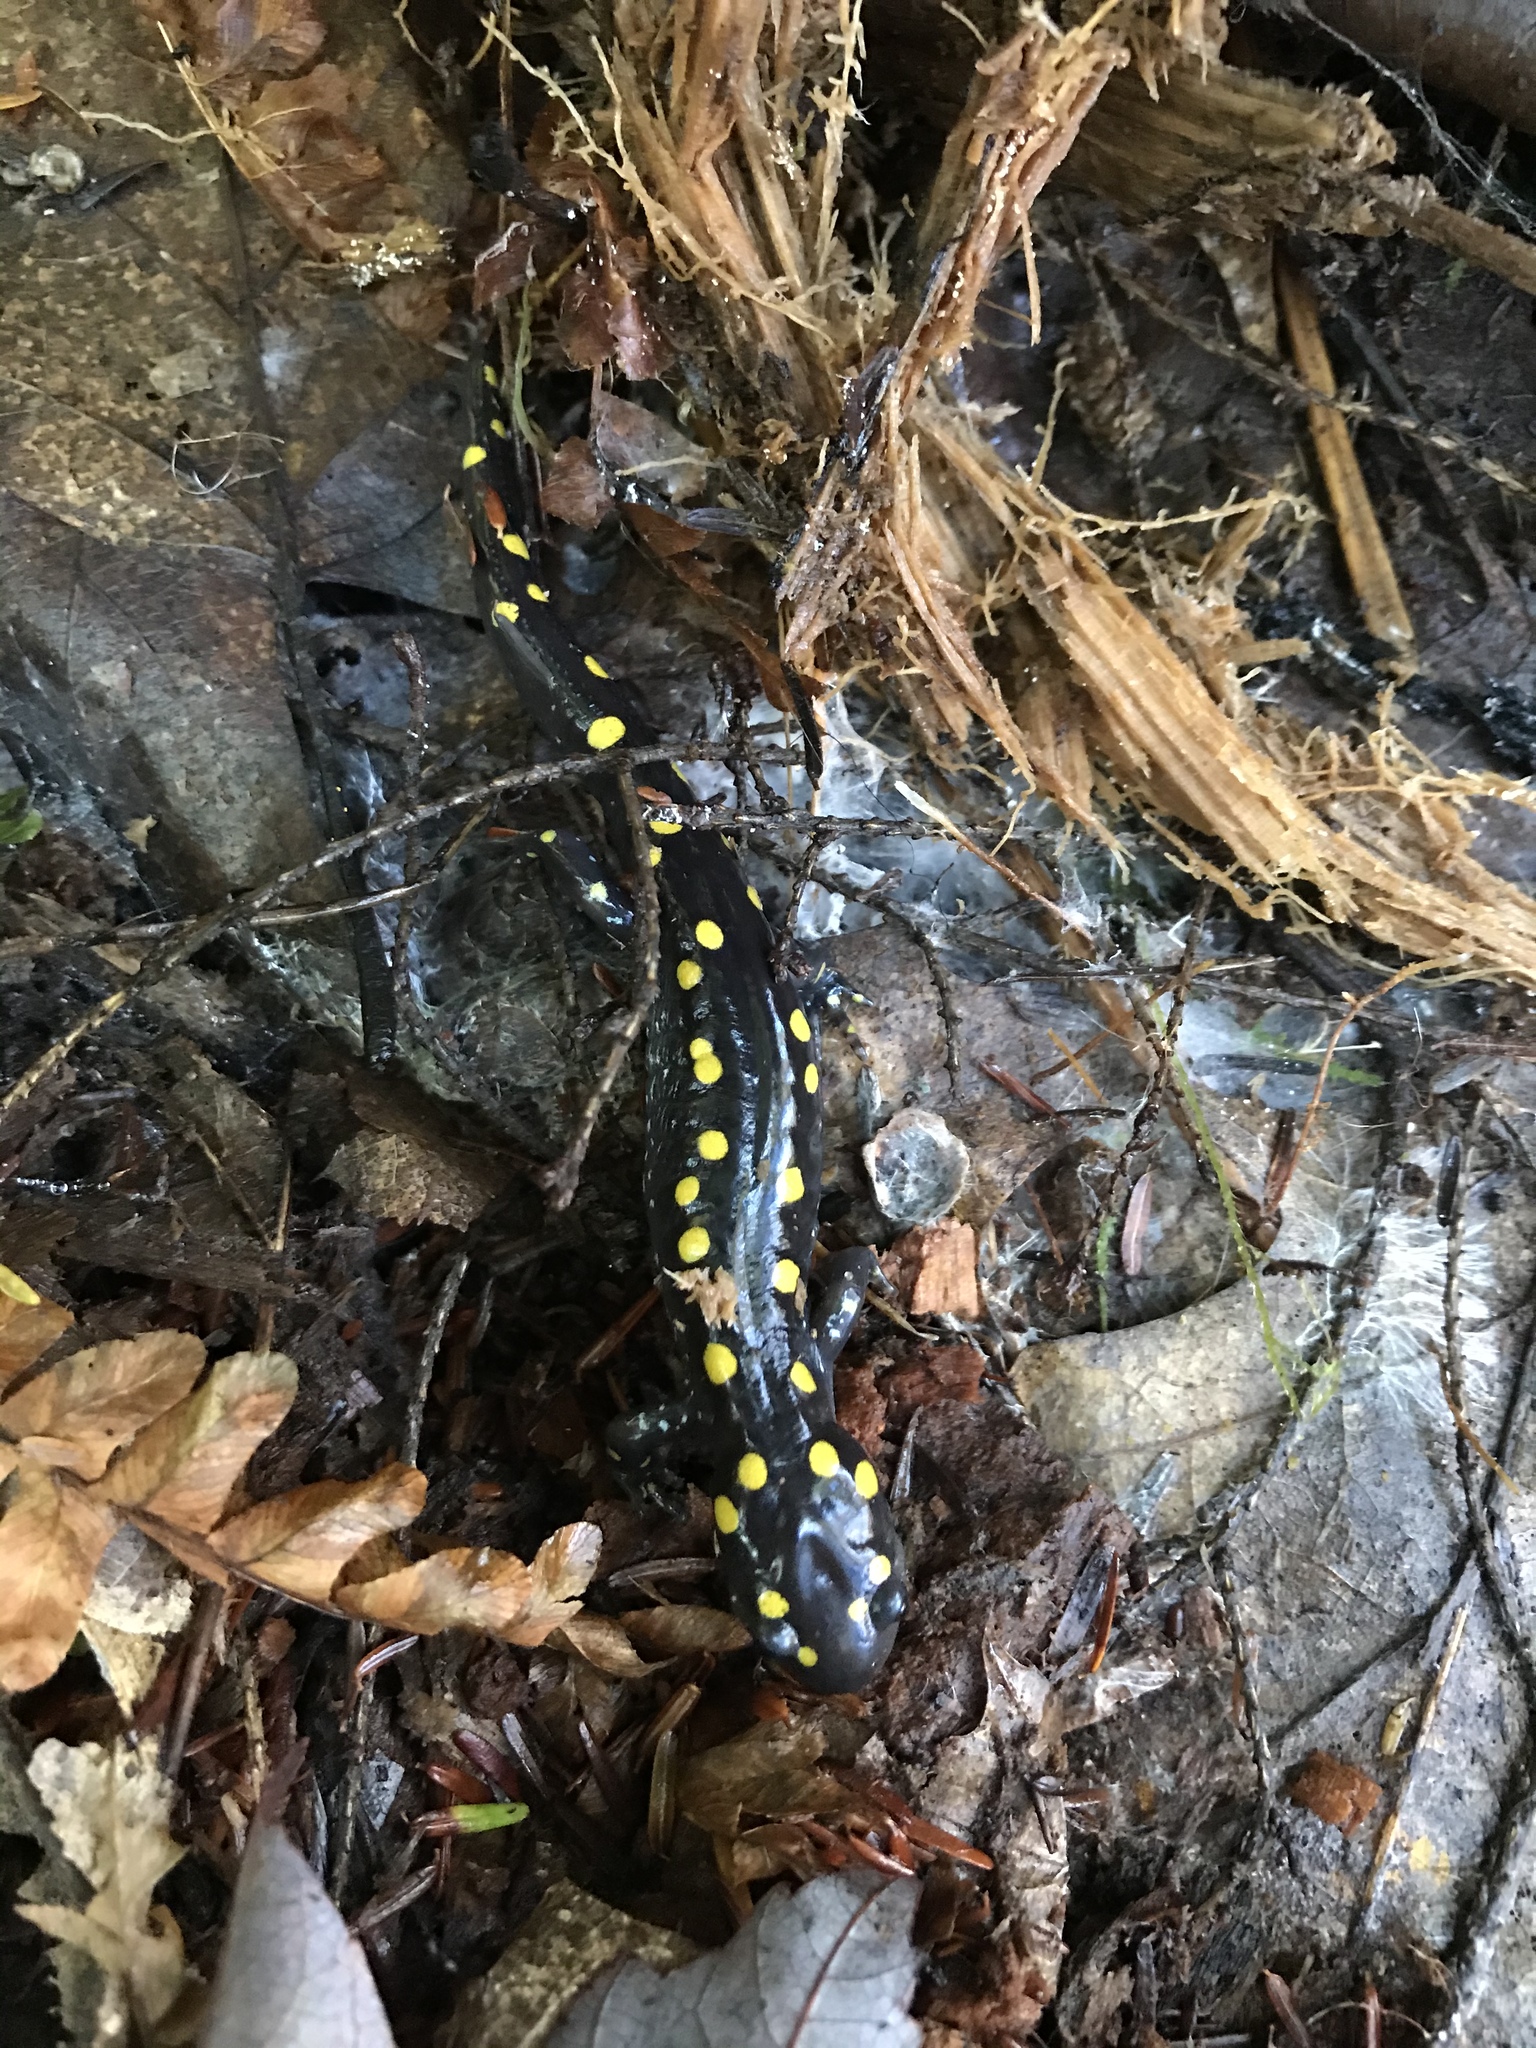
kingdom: Animalia
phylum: Chordata
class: Amphibia
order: Caudata
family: Ambystomatidae
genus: Ambystoma
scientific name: Ambystoma maculatum
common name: Spotted salamander
